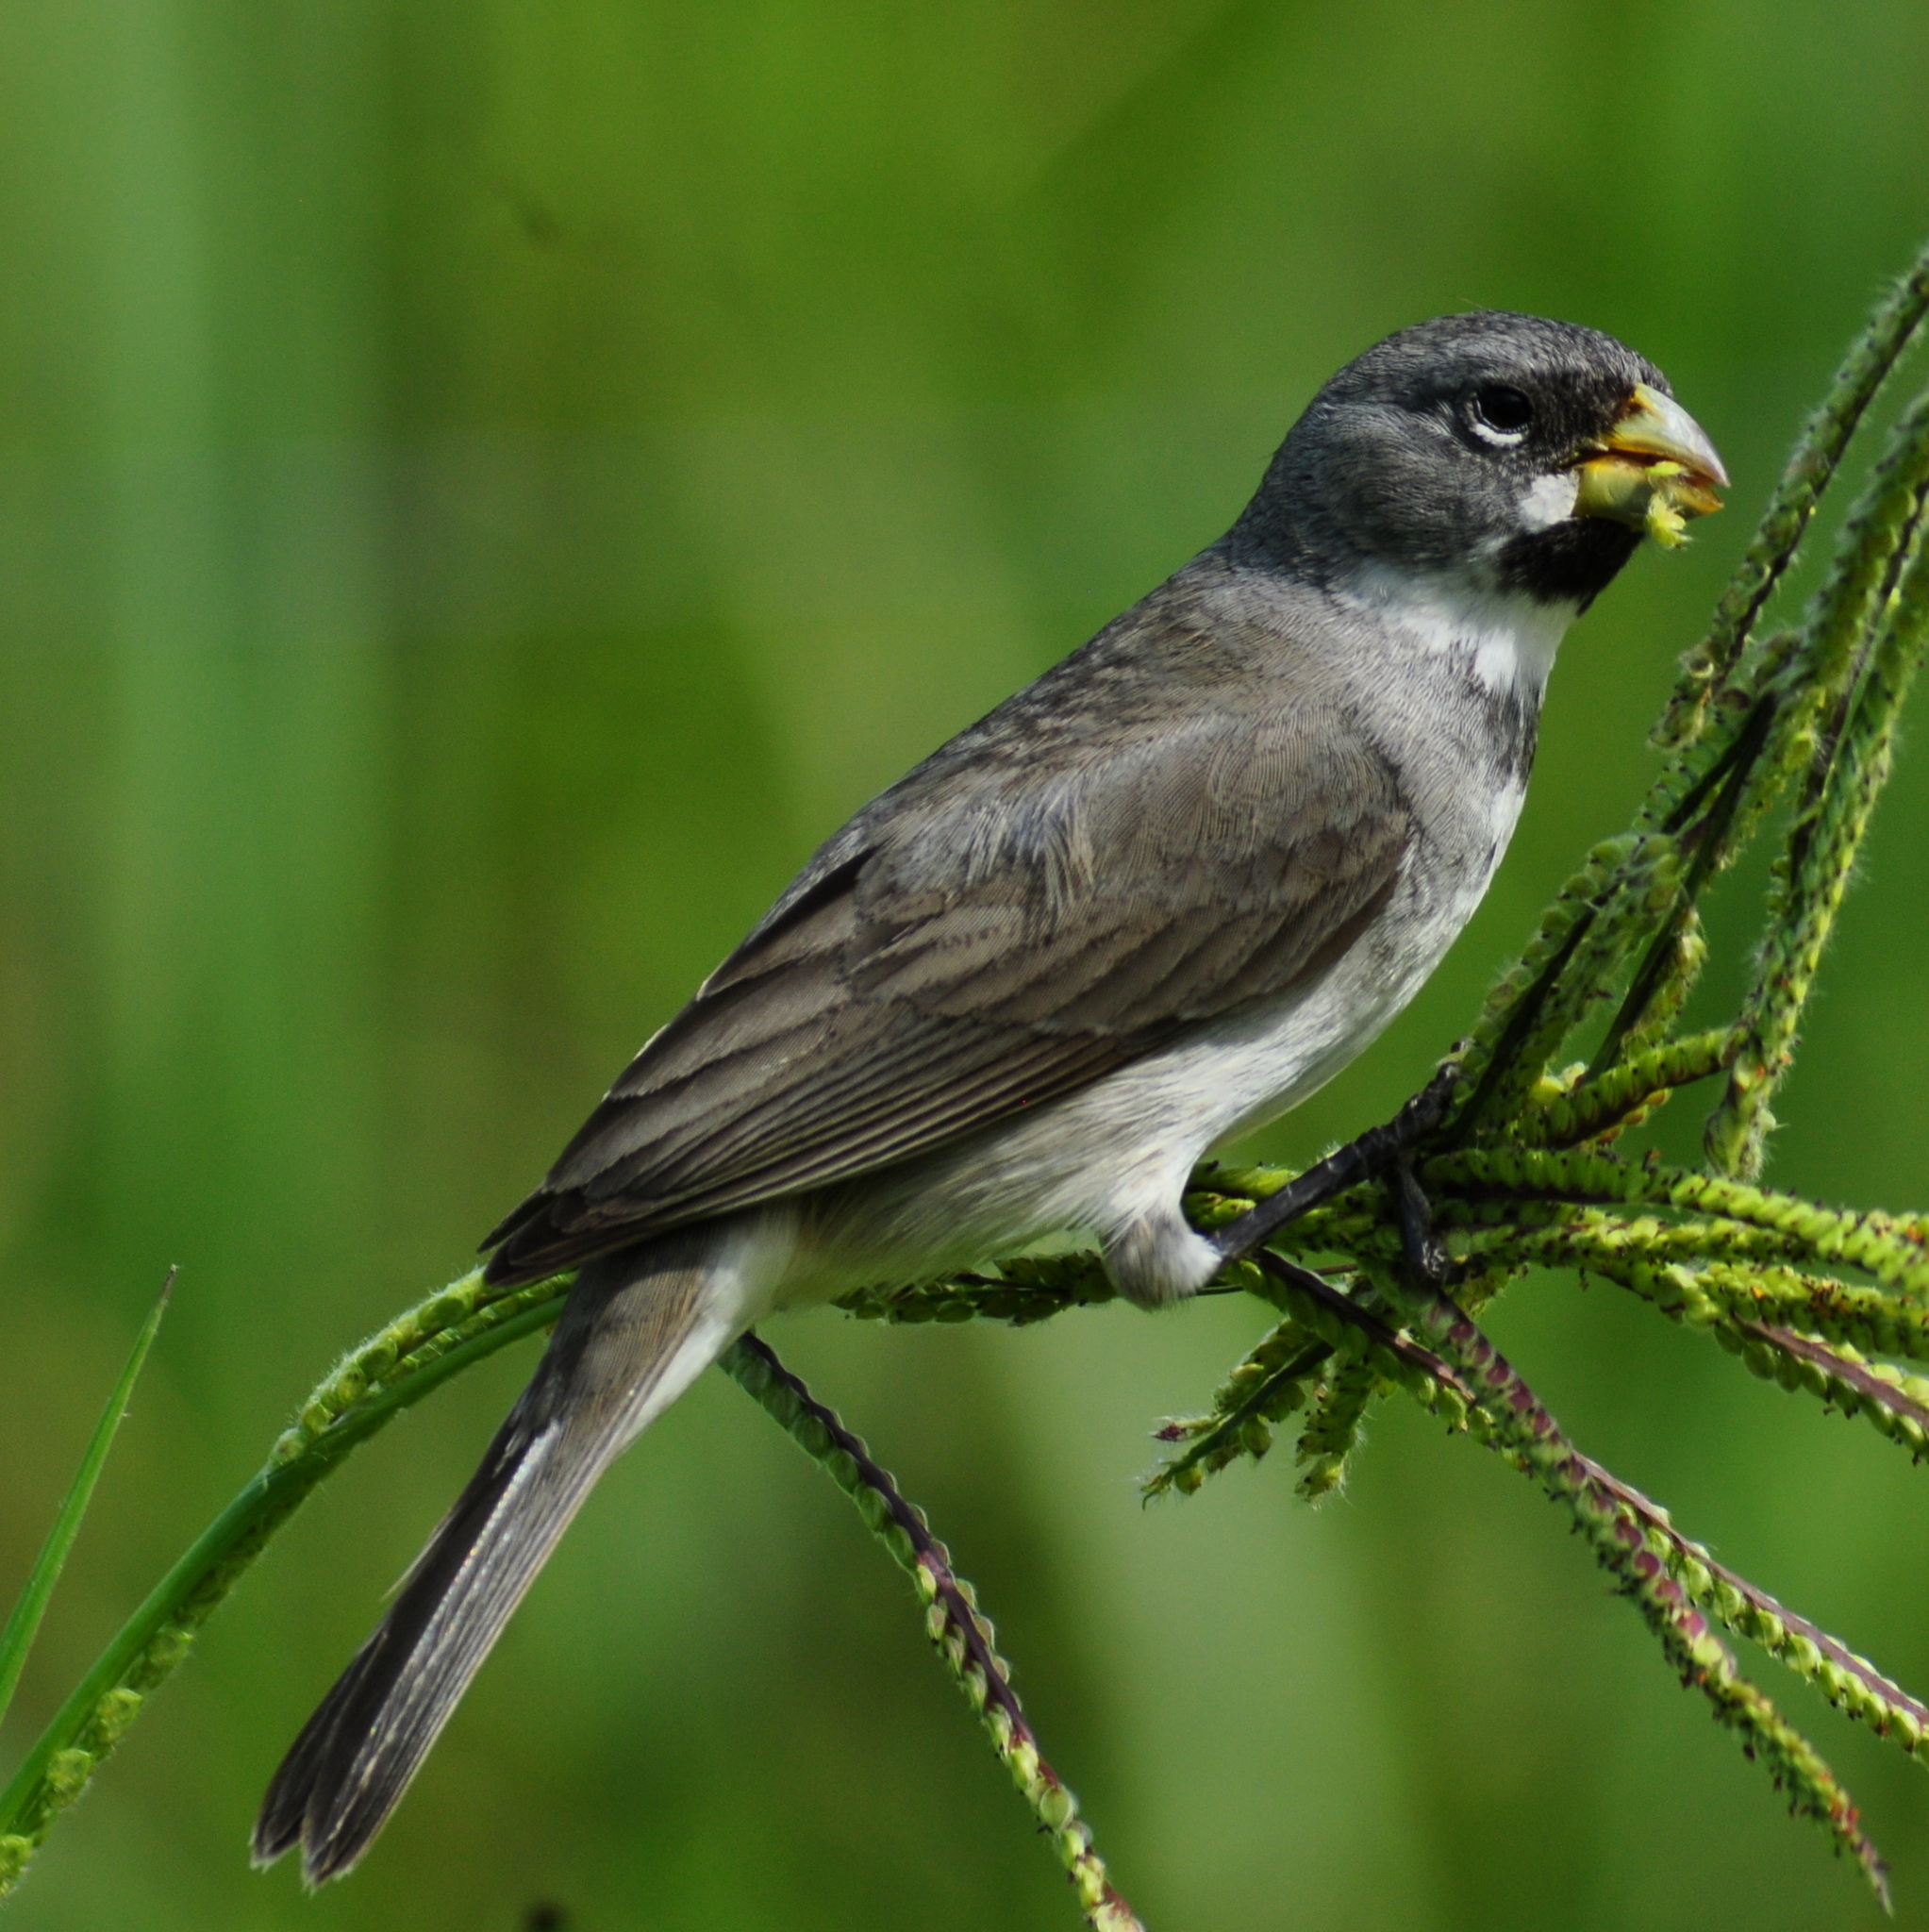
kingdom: Animalia
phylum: Chordata
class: Aves
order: Passeriformes
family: Thraupidae
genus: Sporophila
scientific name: Sporophila caerulescens
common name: Double-collared seedeater
